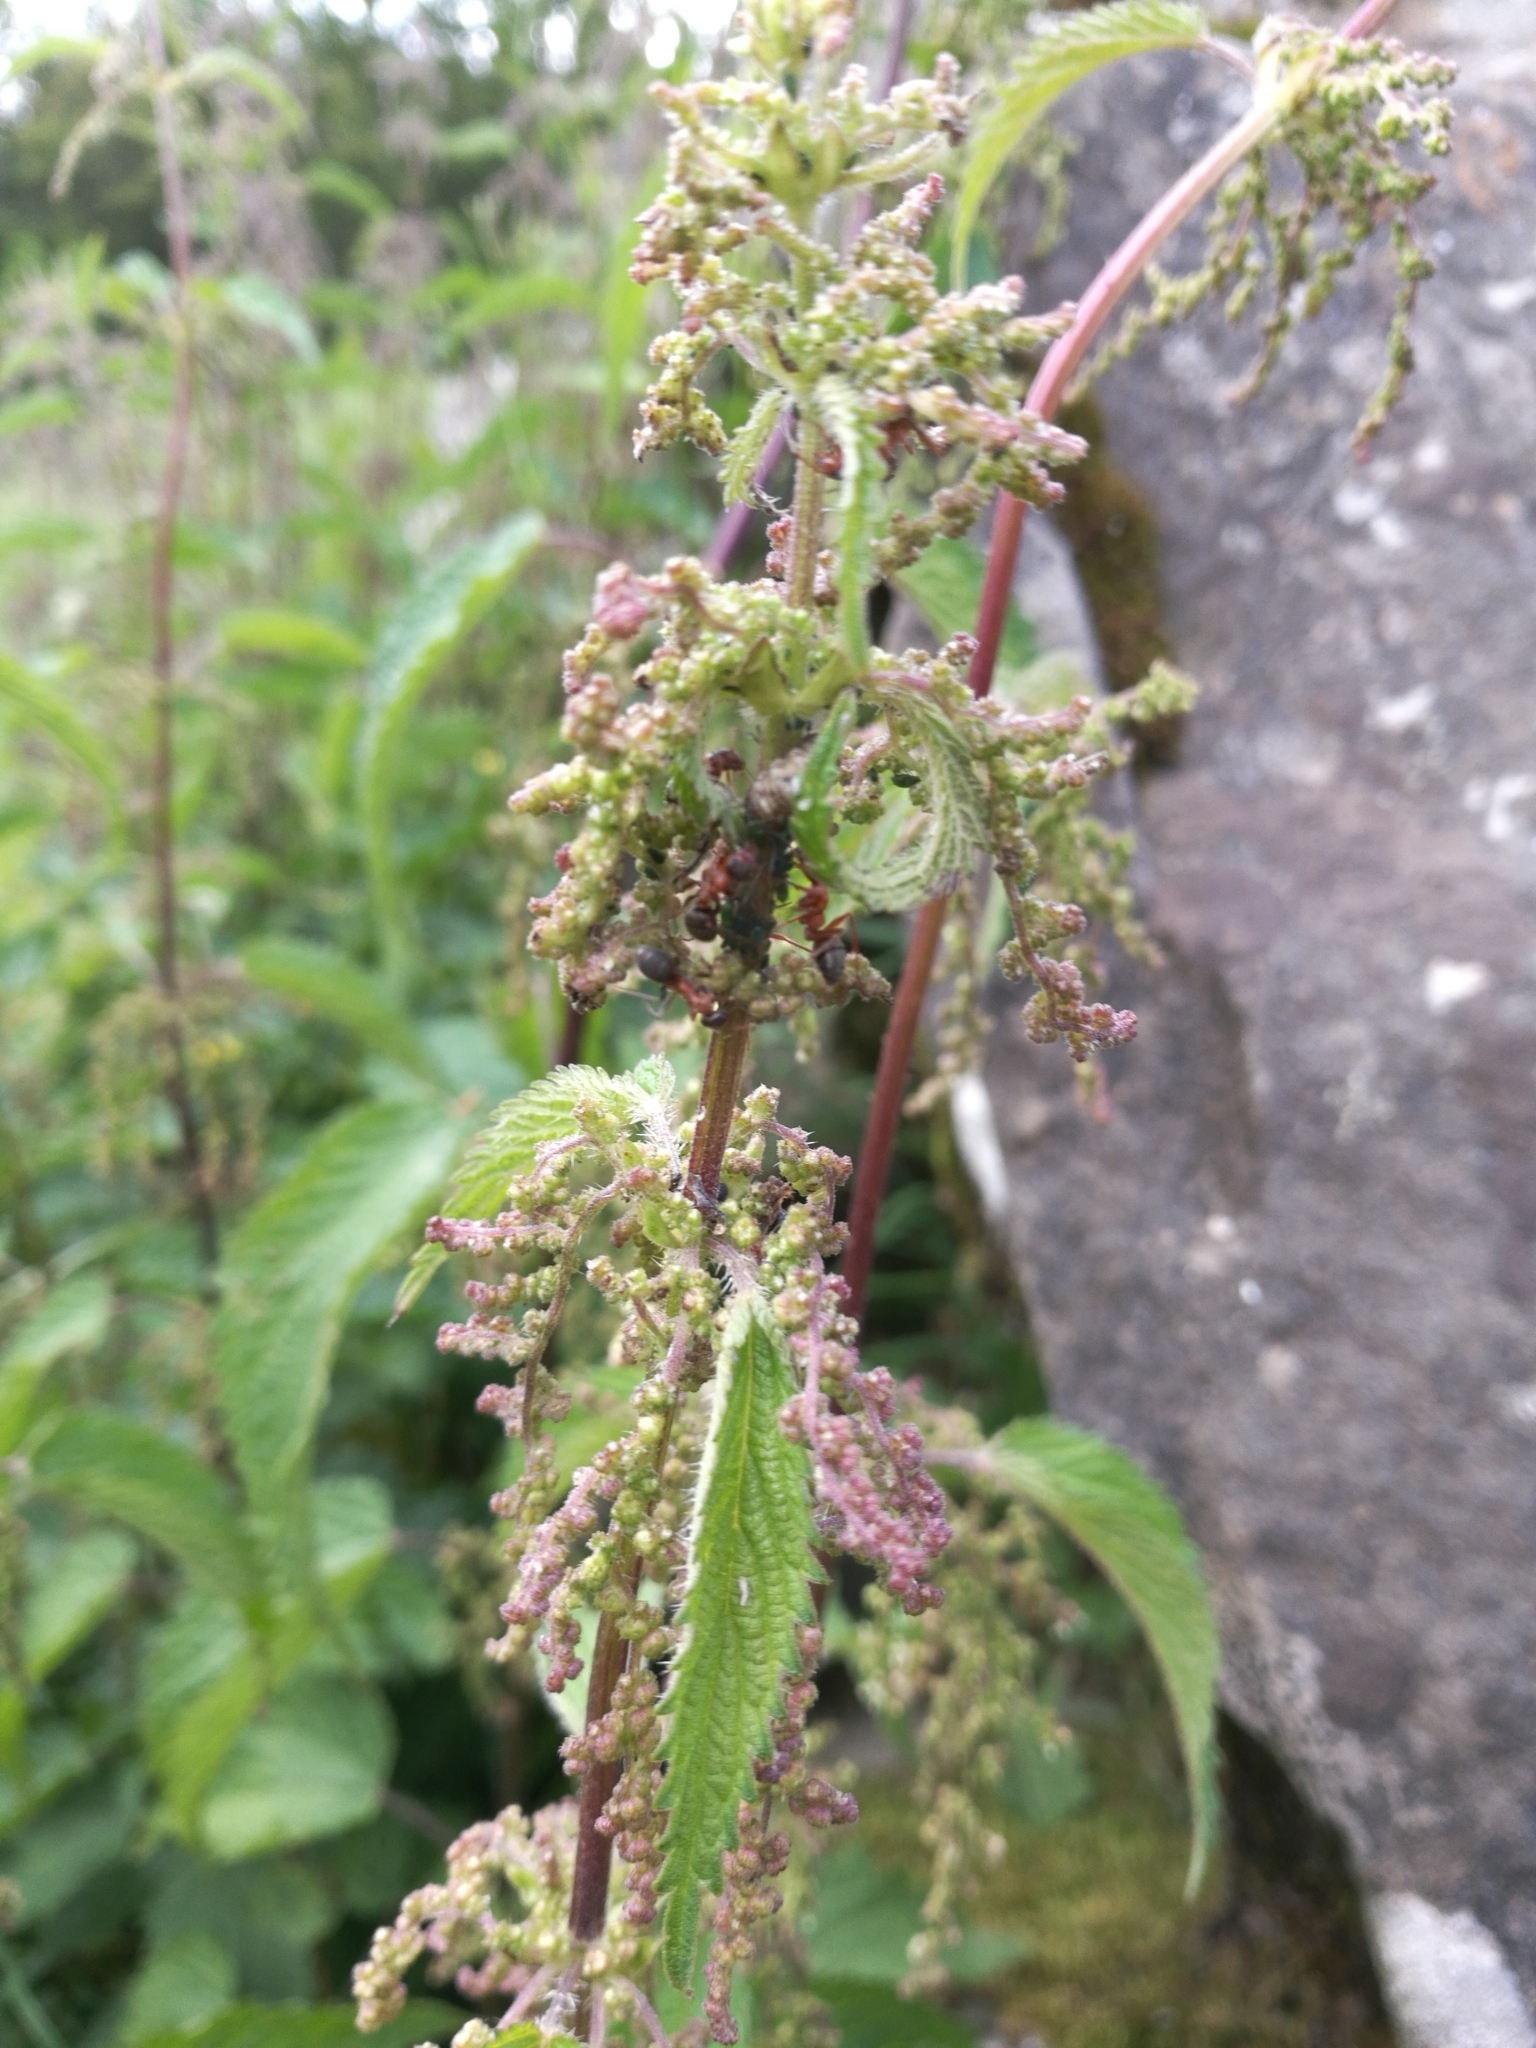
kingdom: Plantae
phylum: Tracheophyta
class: Magnoliopsida
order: Rosales
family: Urticaceae
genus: Urtica
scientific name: Urtica dioica
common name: Common nettle
